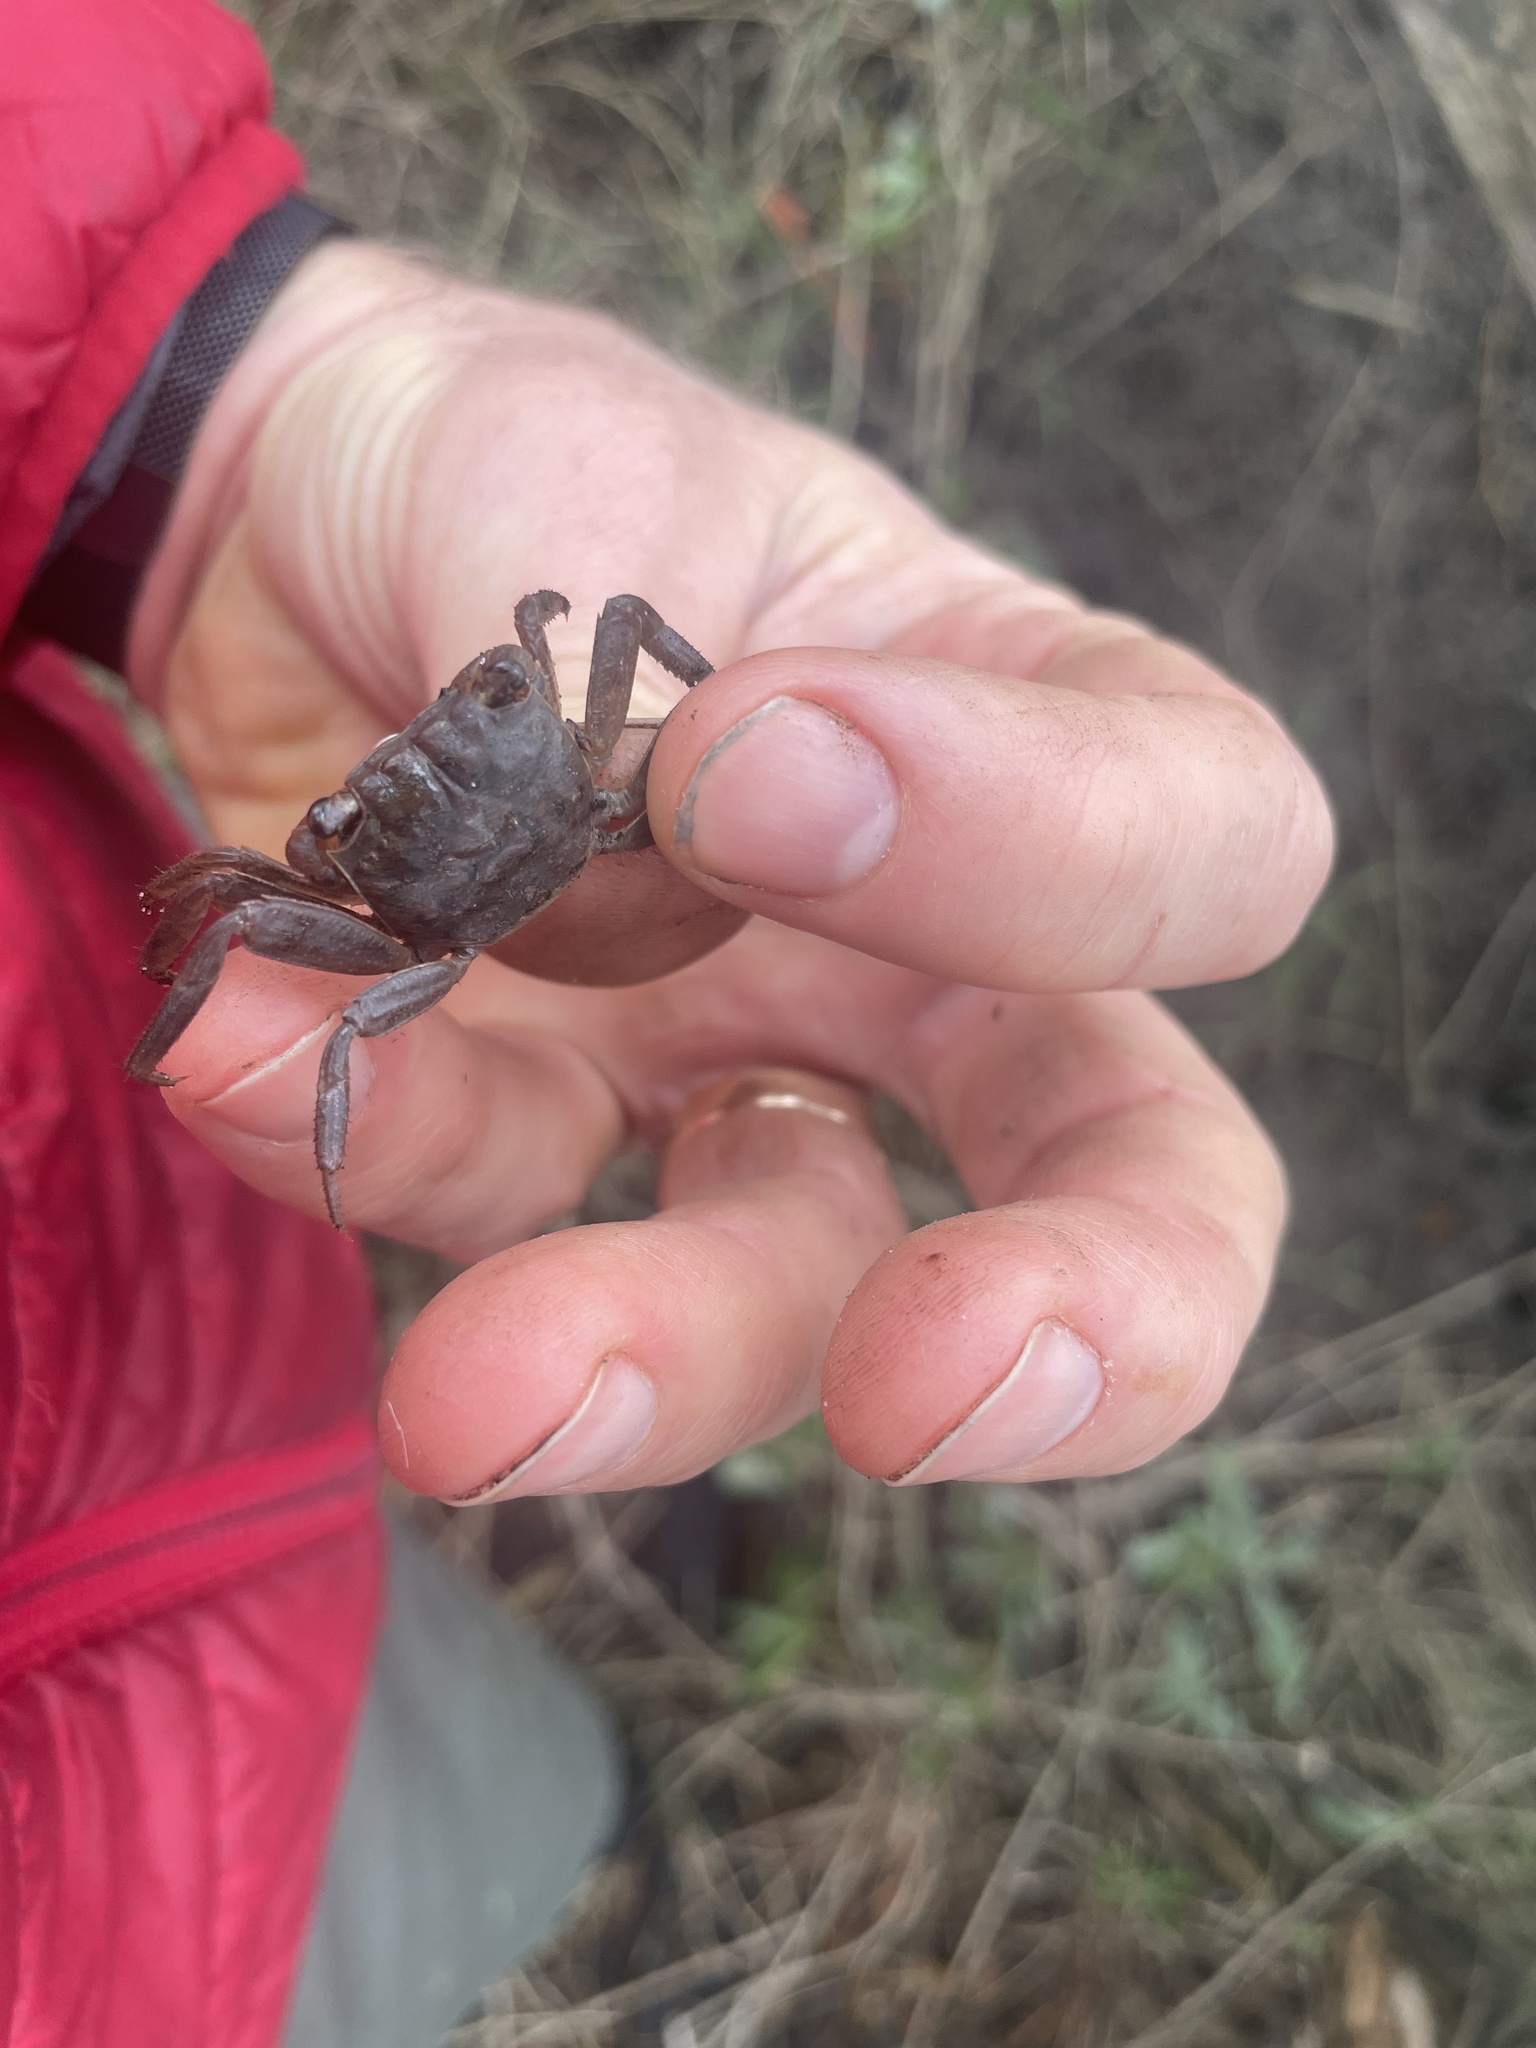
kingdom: Animalia
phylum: Arthropoda
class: Malacostraca
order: Decapoda
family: Sesarmidae
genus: Armases
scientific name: Armases cinereum
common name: Squareback marsh crab
